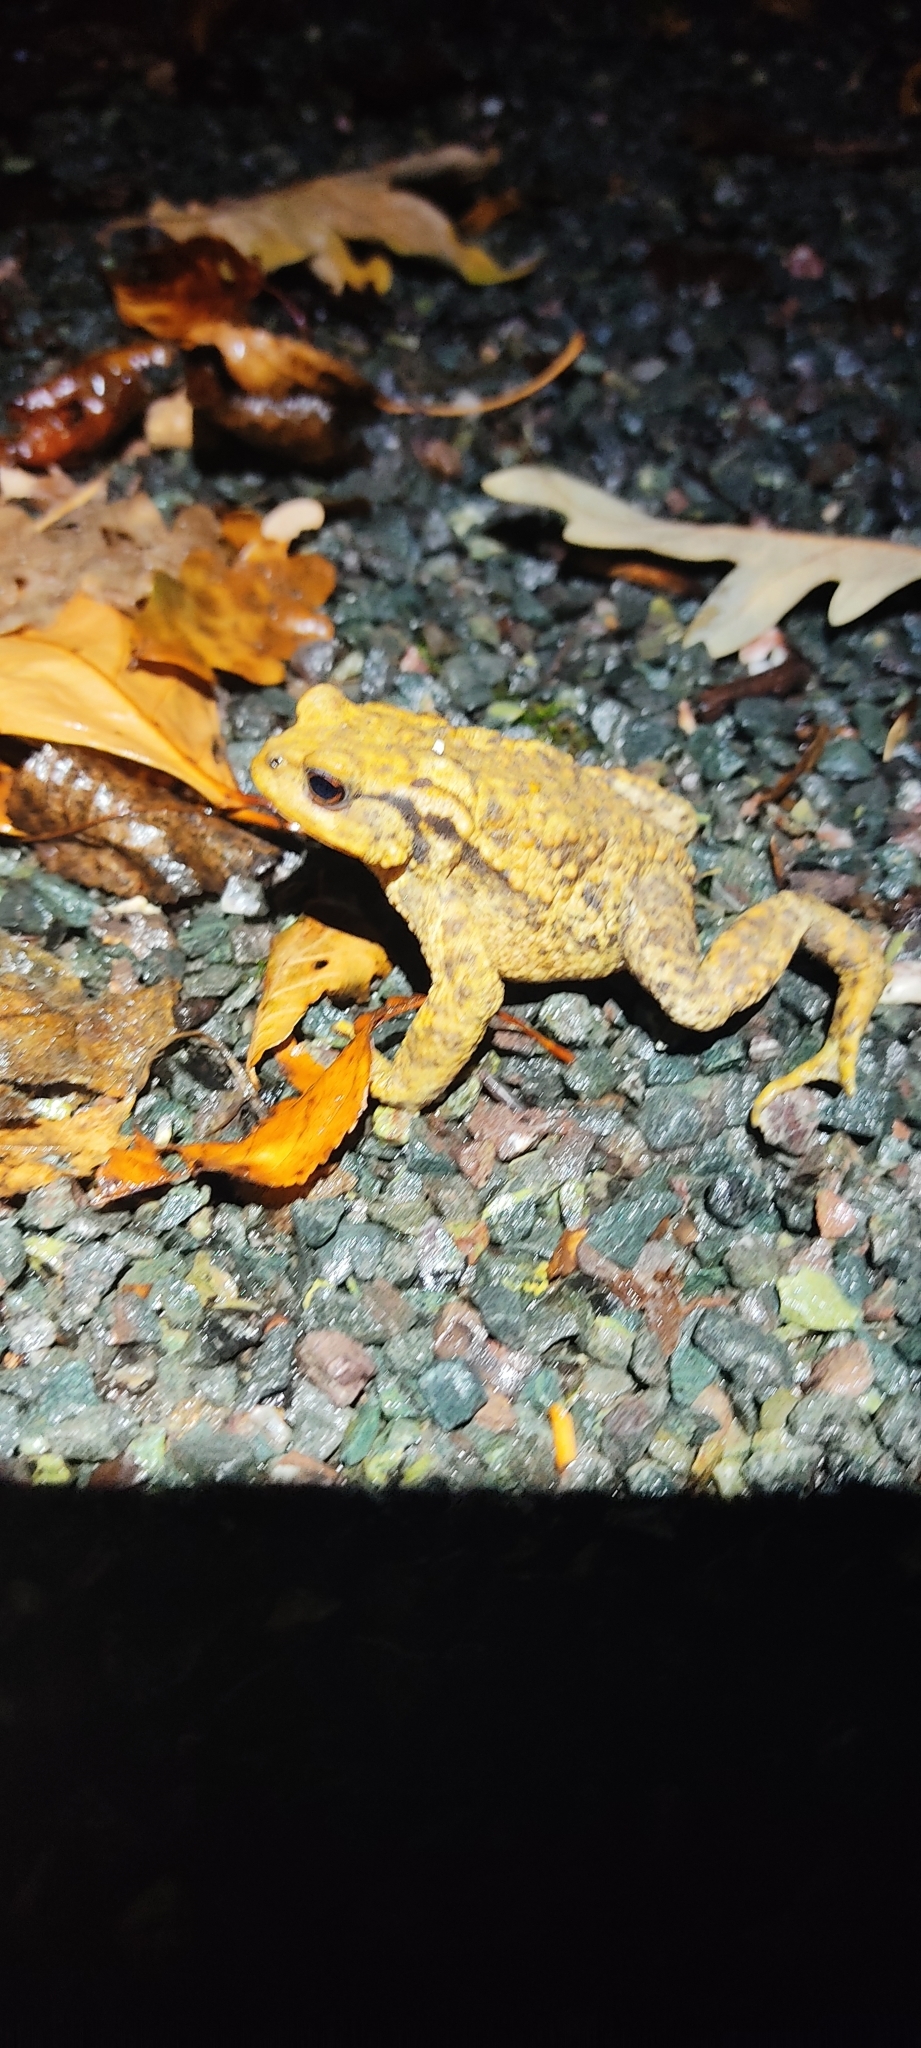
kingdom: Animalia
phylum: Chordata
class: Amphibia
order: Anura
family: Bufonidae
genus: Bufo
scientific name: Bufo spinosus
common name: Western common toad
